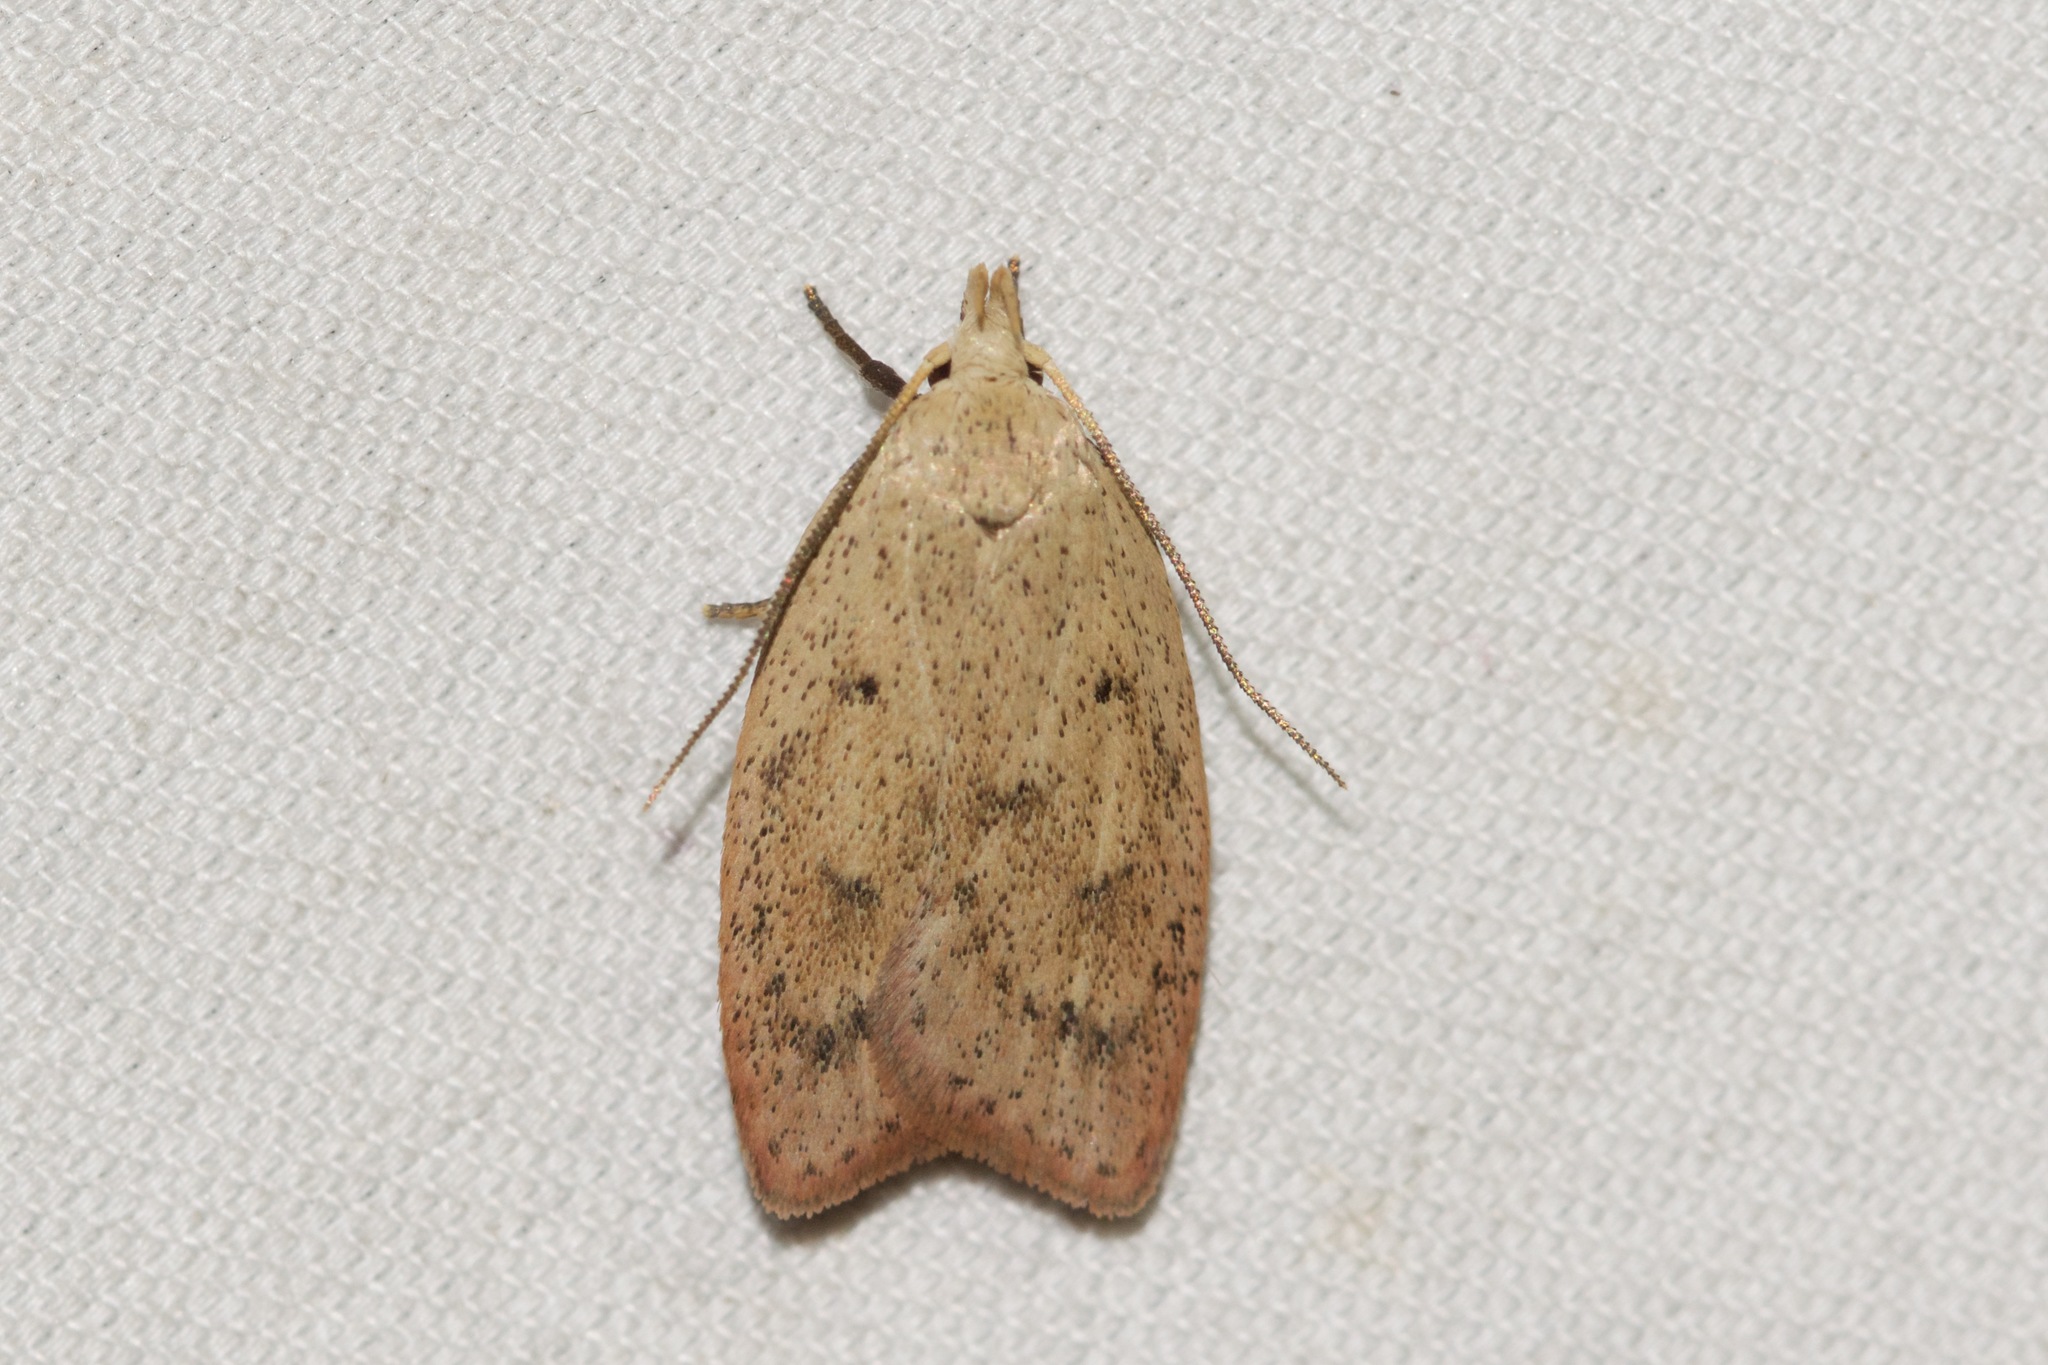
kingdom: Animalia
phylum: Arthropoda
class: Insecta
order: Lepidoptera
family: Peleopodidae
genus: Machimia
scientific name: Machimia tentoriferella
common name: Gold-striped leaftier moth
